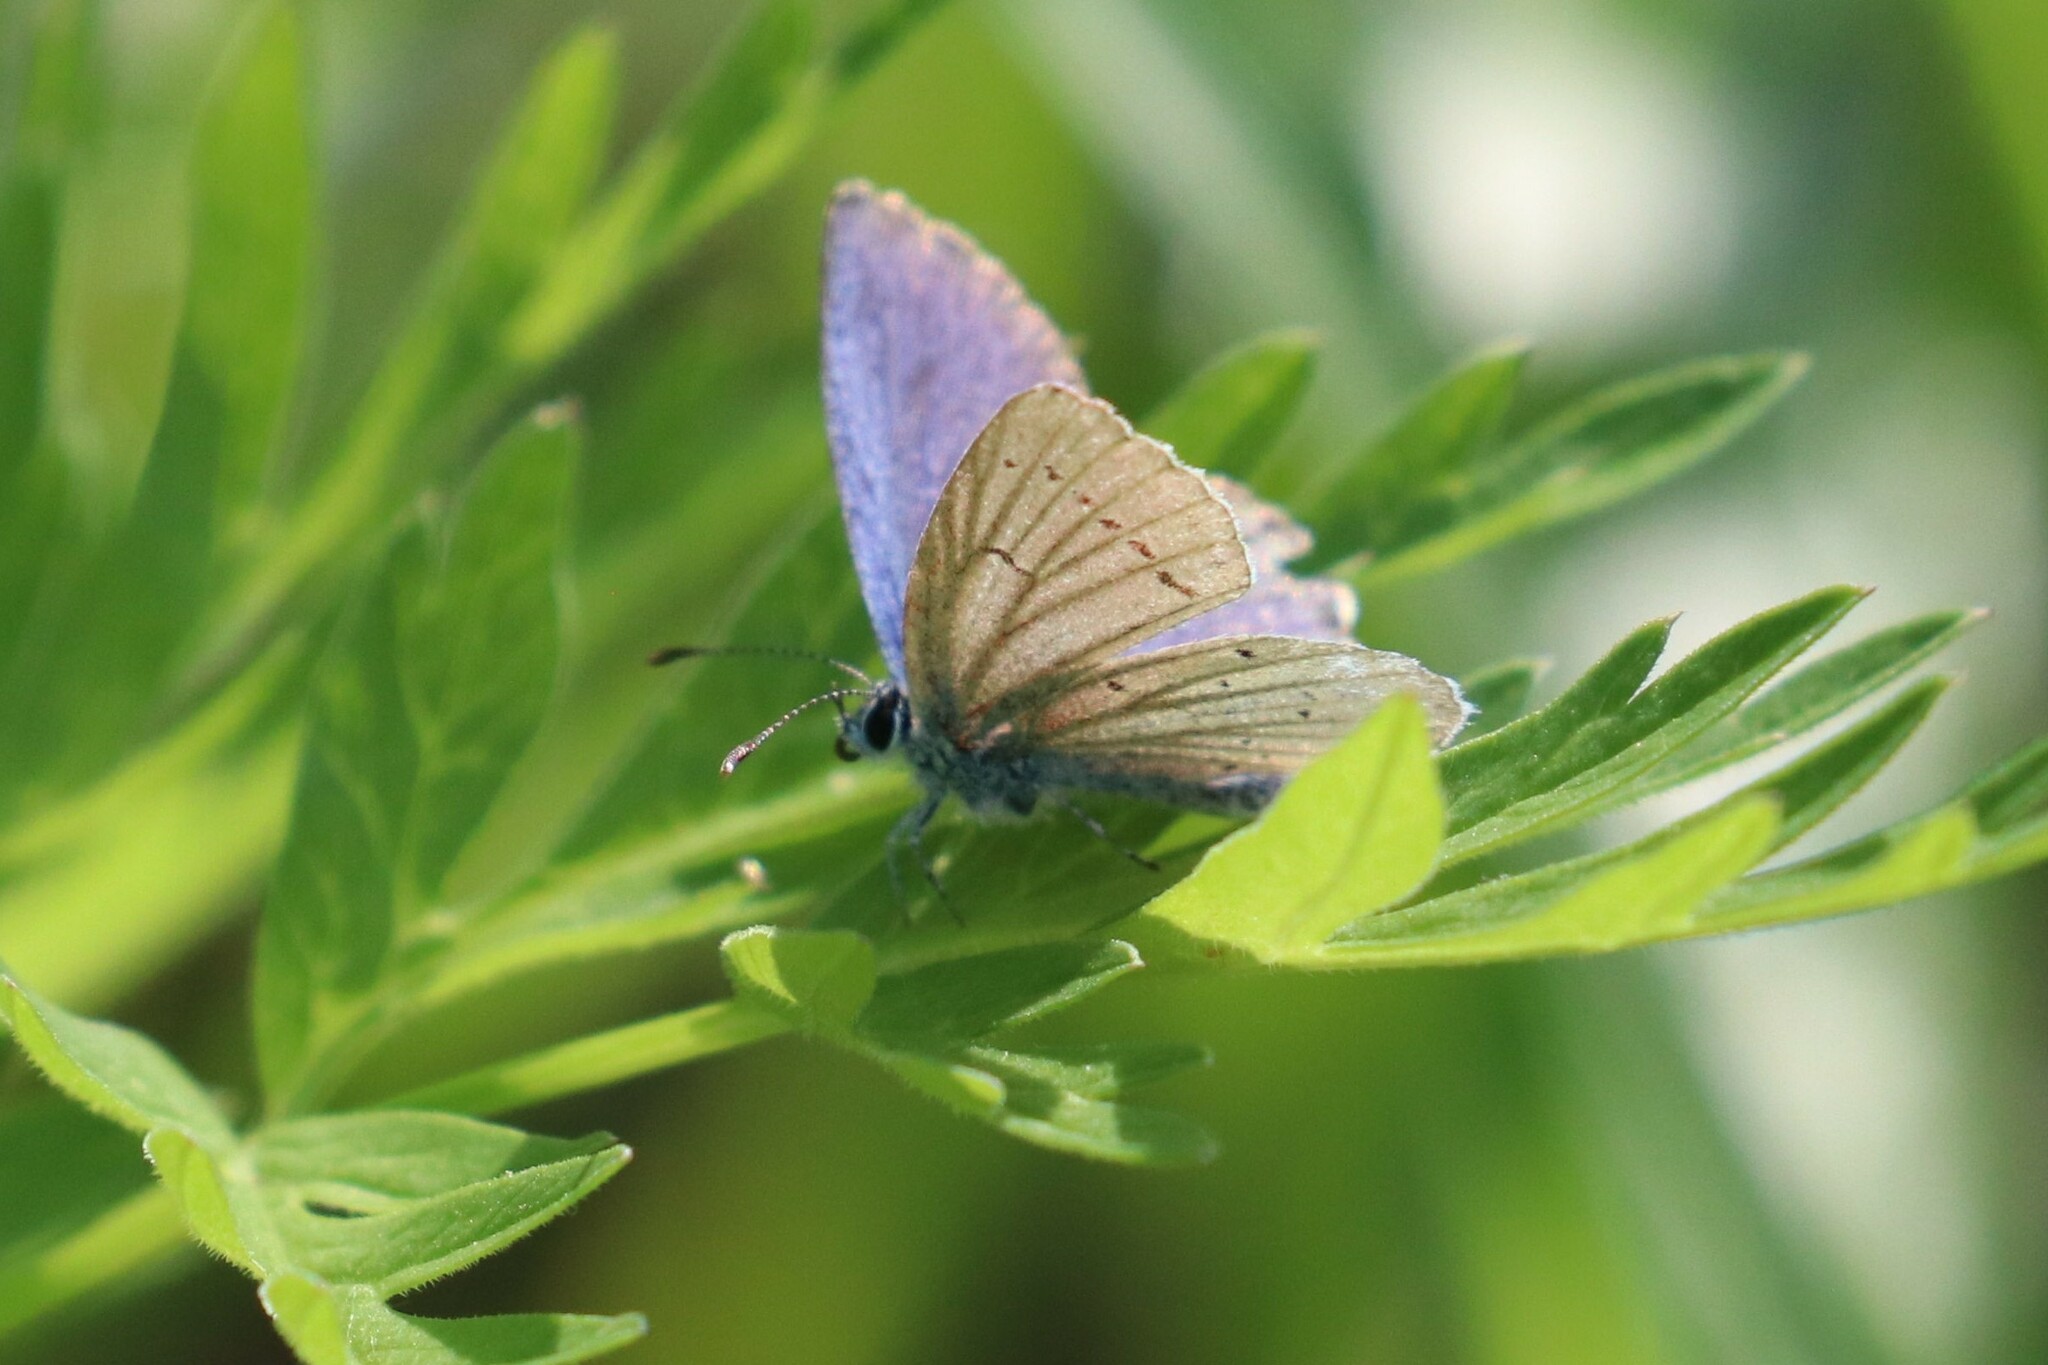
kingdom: Animalia
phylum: Arthropoda
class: Insecta
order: Lepidoptera
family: Lycaenidae
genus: Elkalyce
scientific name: Elkalyce argiades
